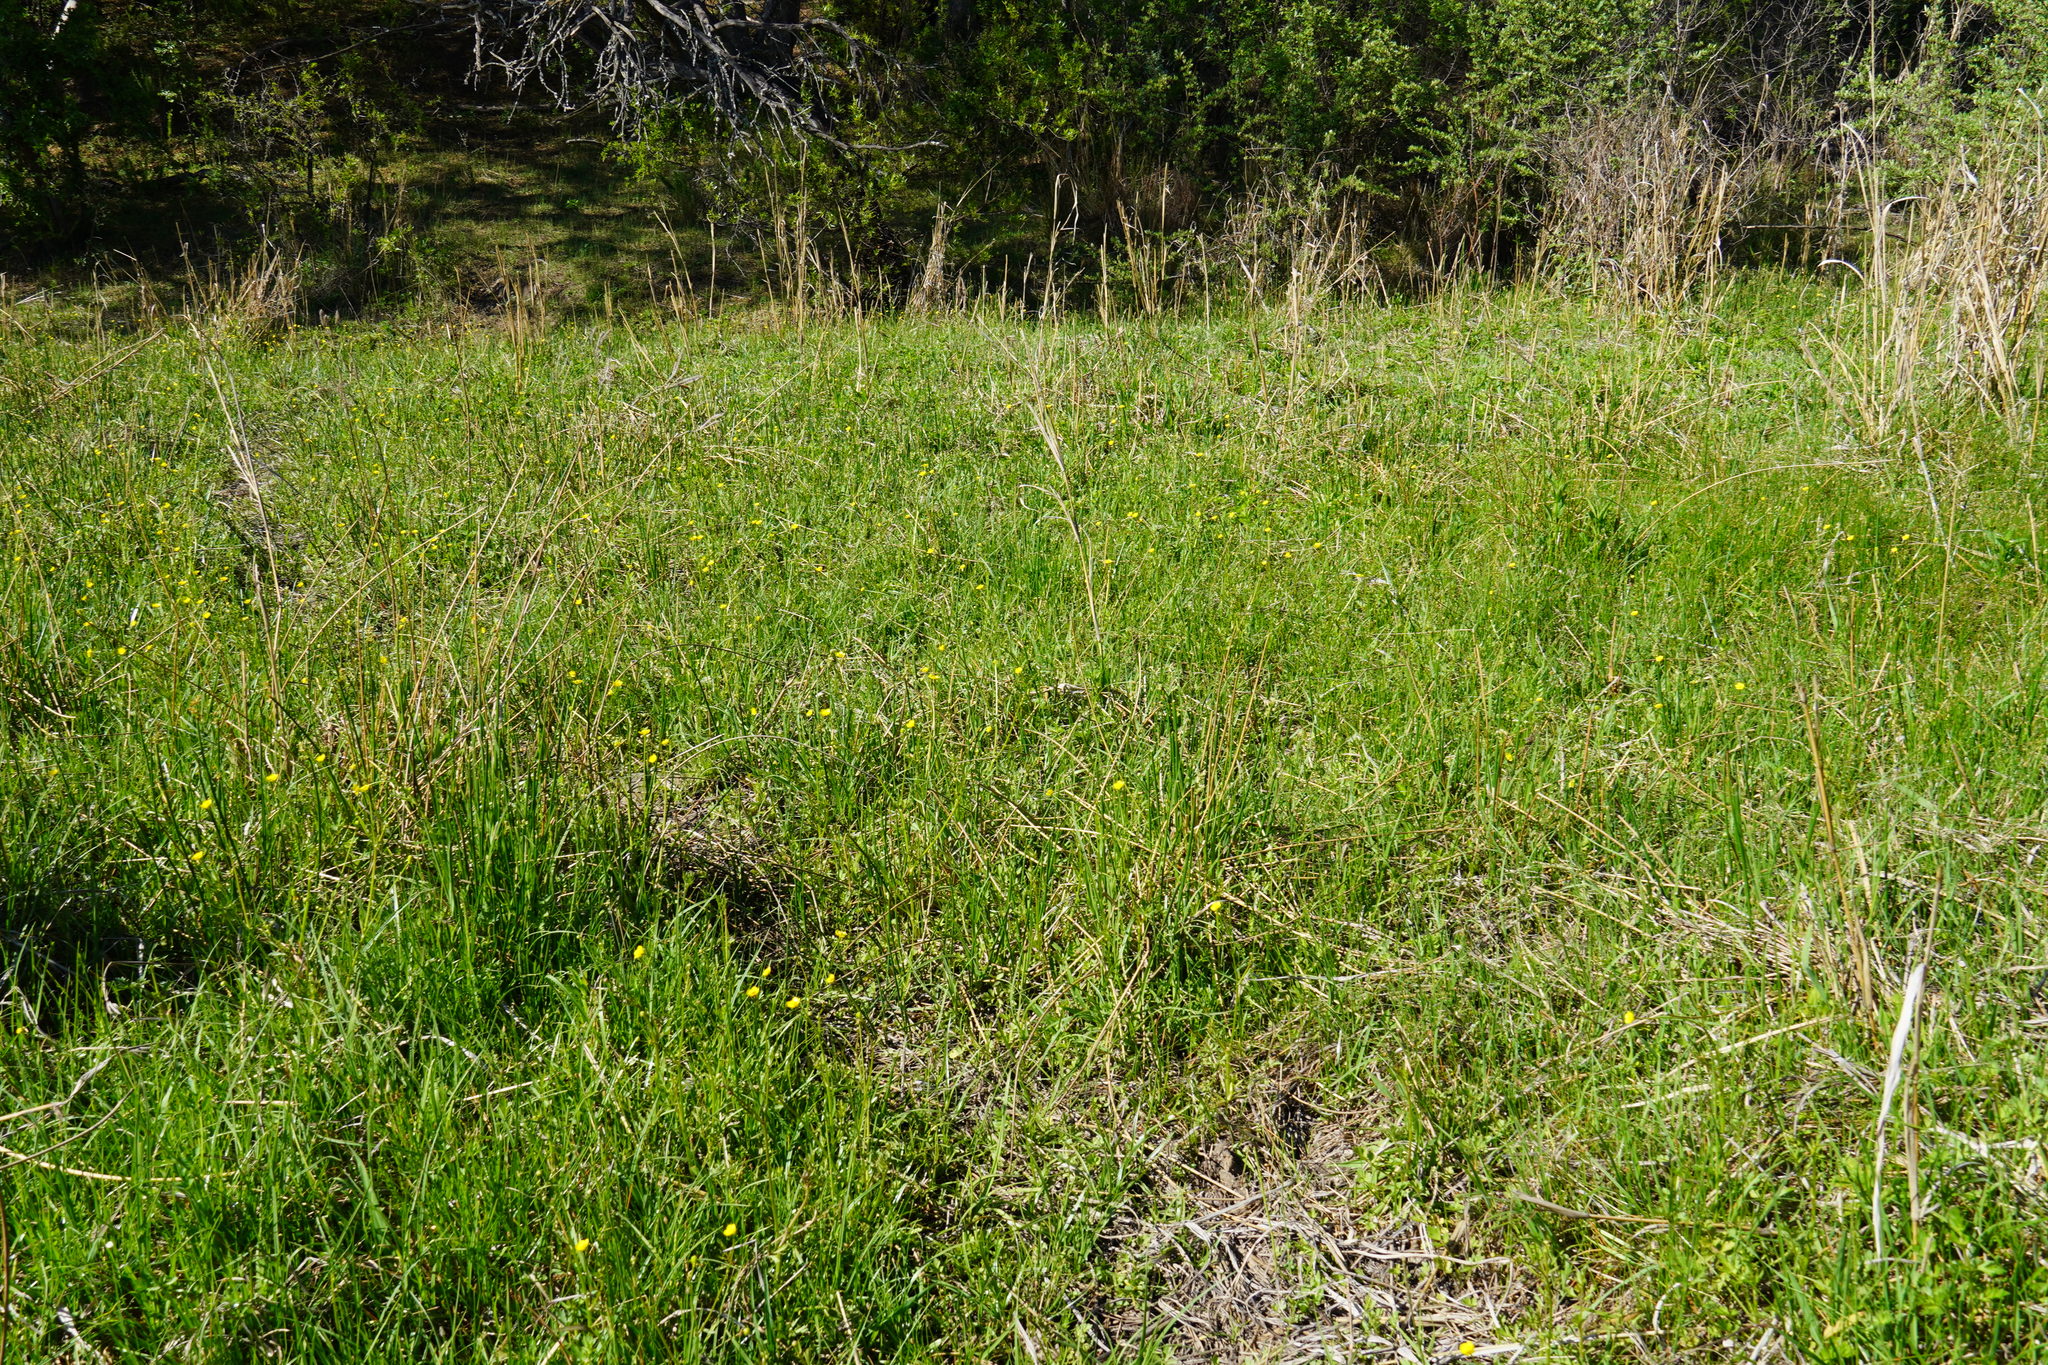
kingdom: Plantae
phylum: Tracheophyta
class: Magnoliopsida
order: Ranunculales
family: Ranunculaceae
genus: Ranunculus
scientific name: Ranunculus multifidus
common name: Wild buttercup
